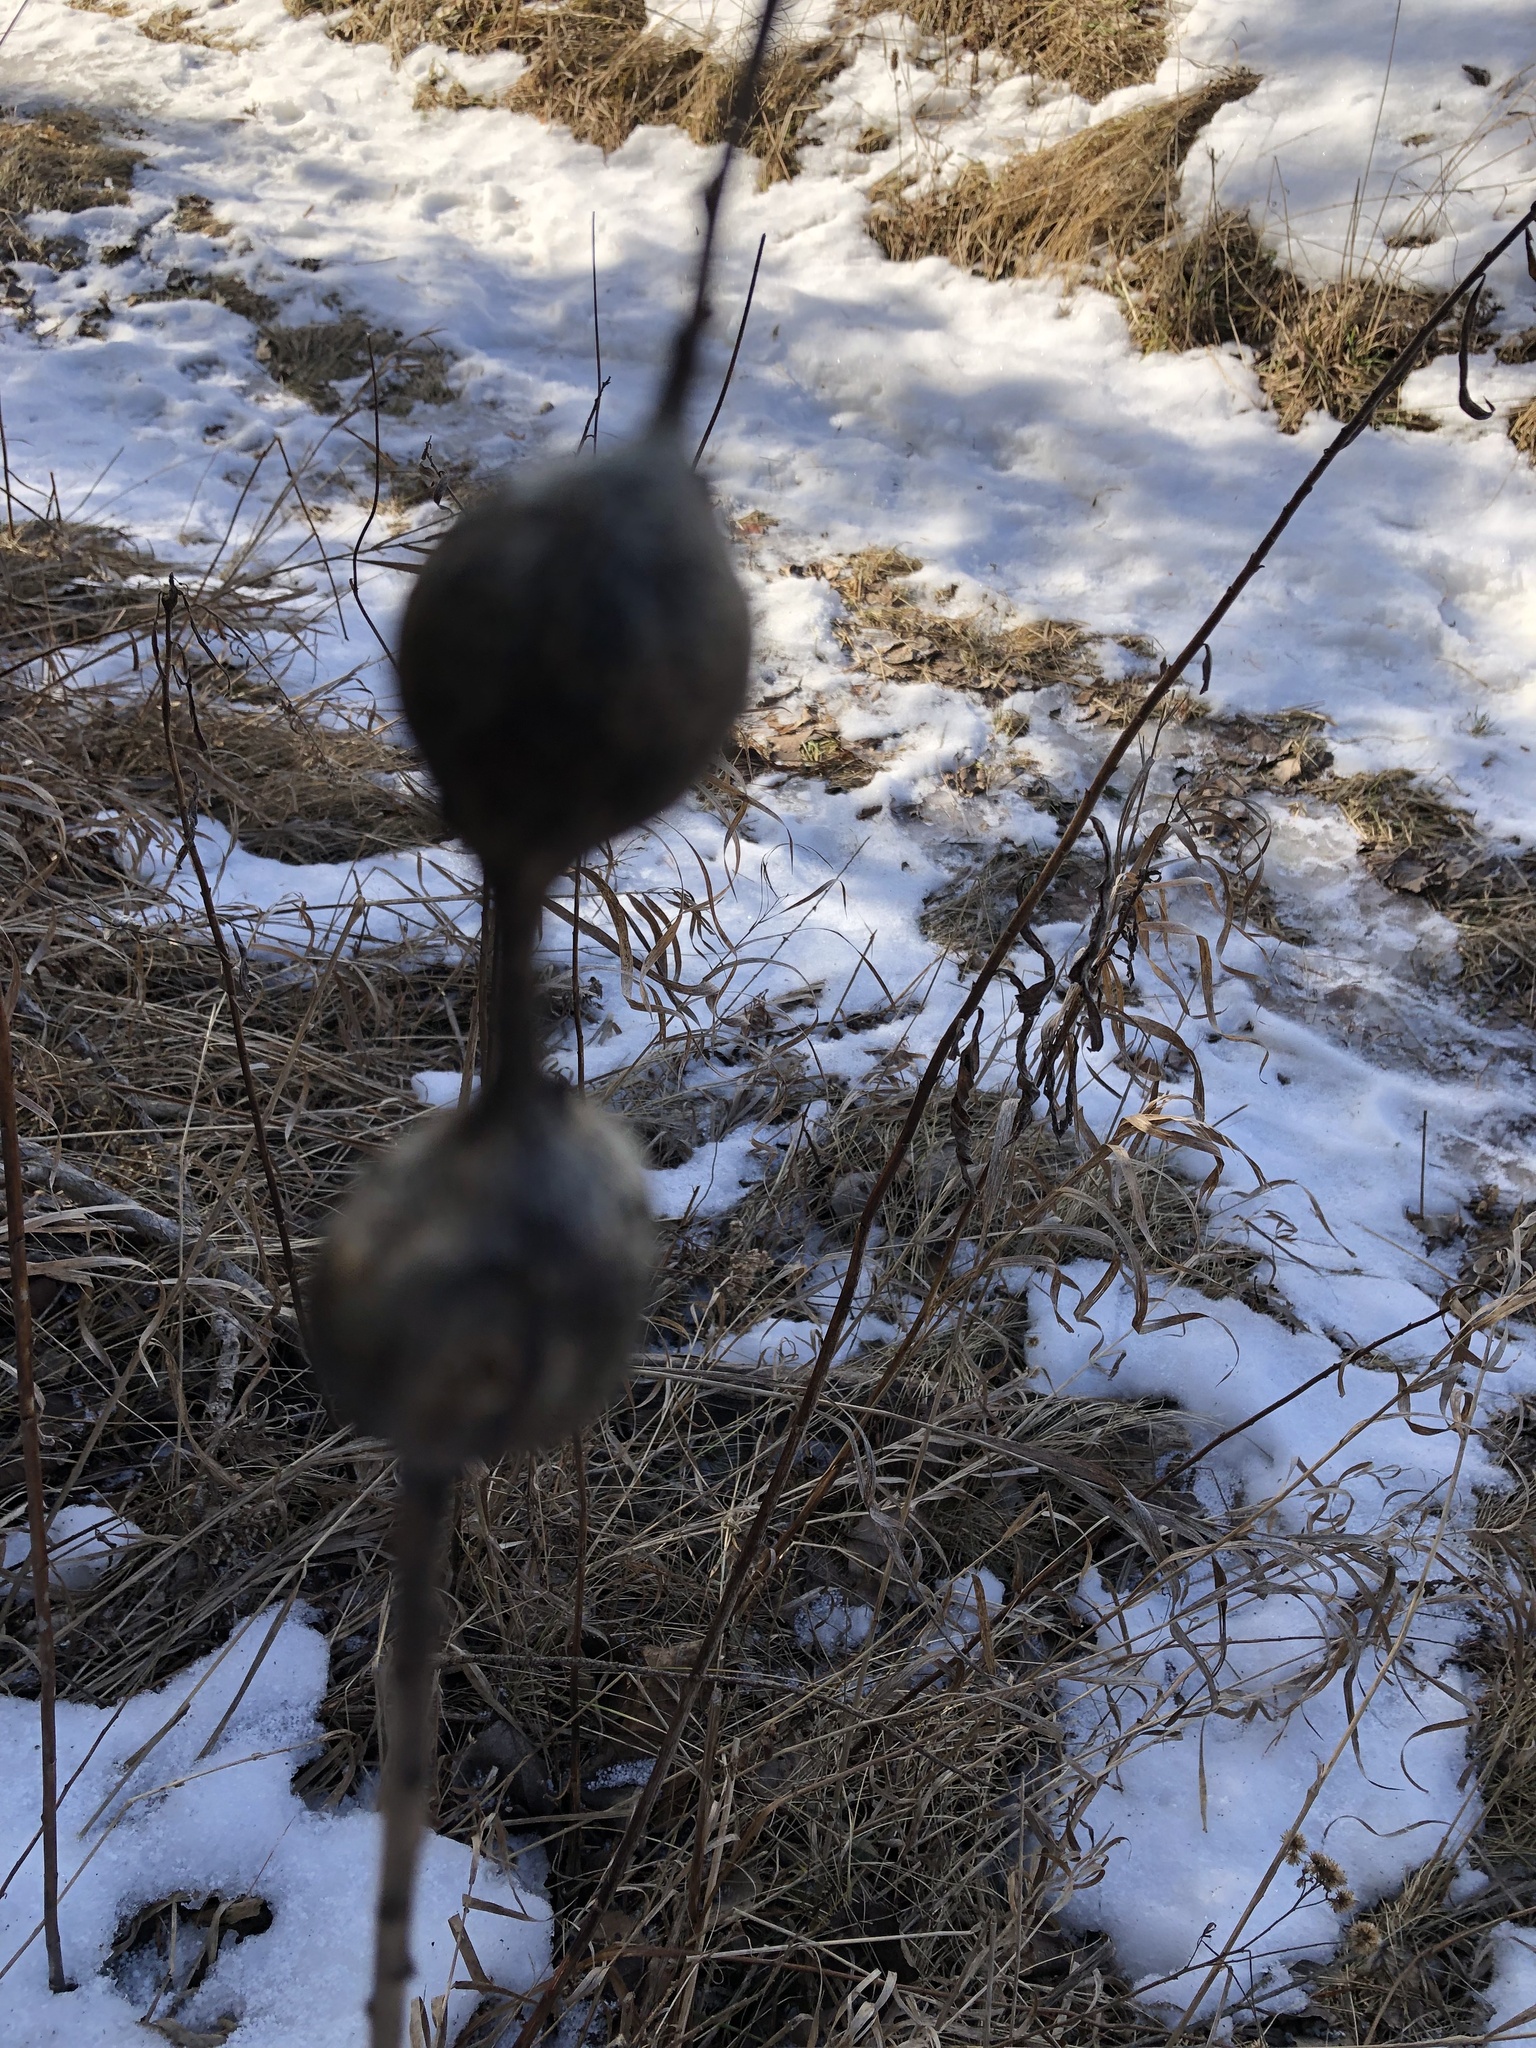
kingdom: Animalia
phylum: Arthropoda
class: Insecta
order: Diptera
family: Tephritidae
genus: Eurosta
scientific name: Eurosta solidaginis
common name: Goldenrod gall fly
